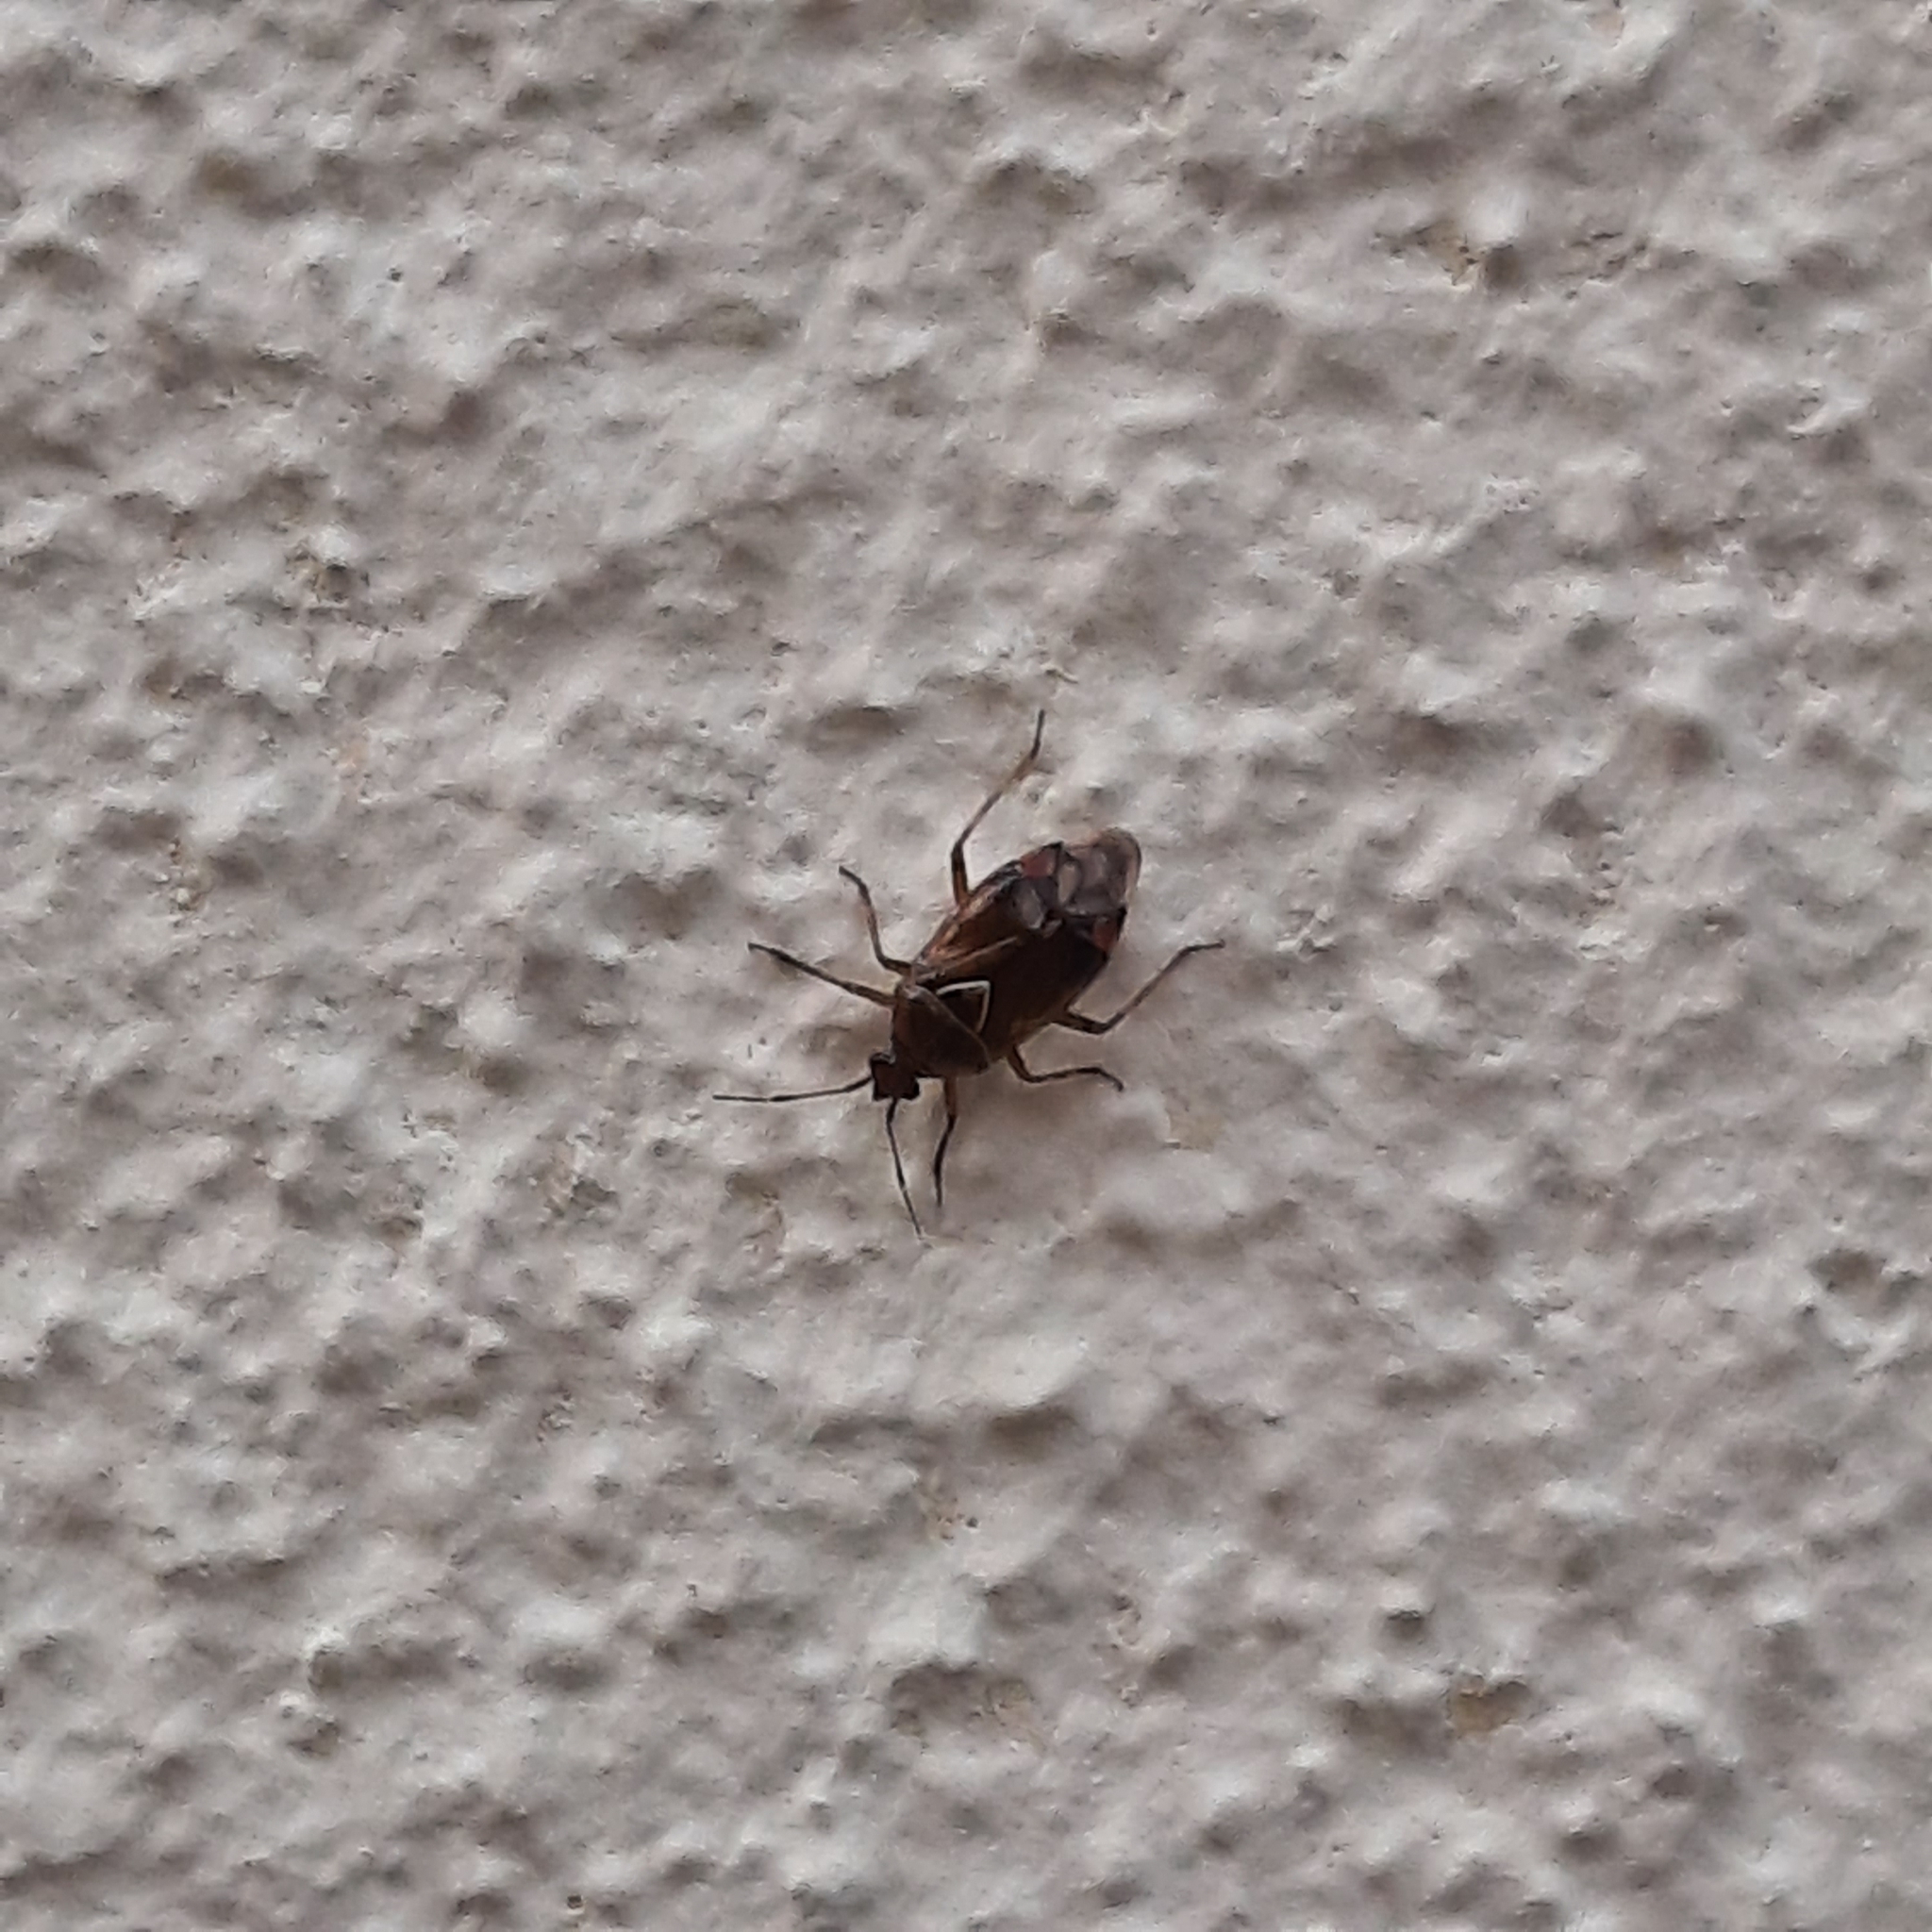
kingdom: Animalia
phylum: Arthropoda
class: Insecta
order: Hemiptera
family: Miridae
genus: Deraeocoris
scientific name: Deraeocoris flavilinea
